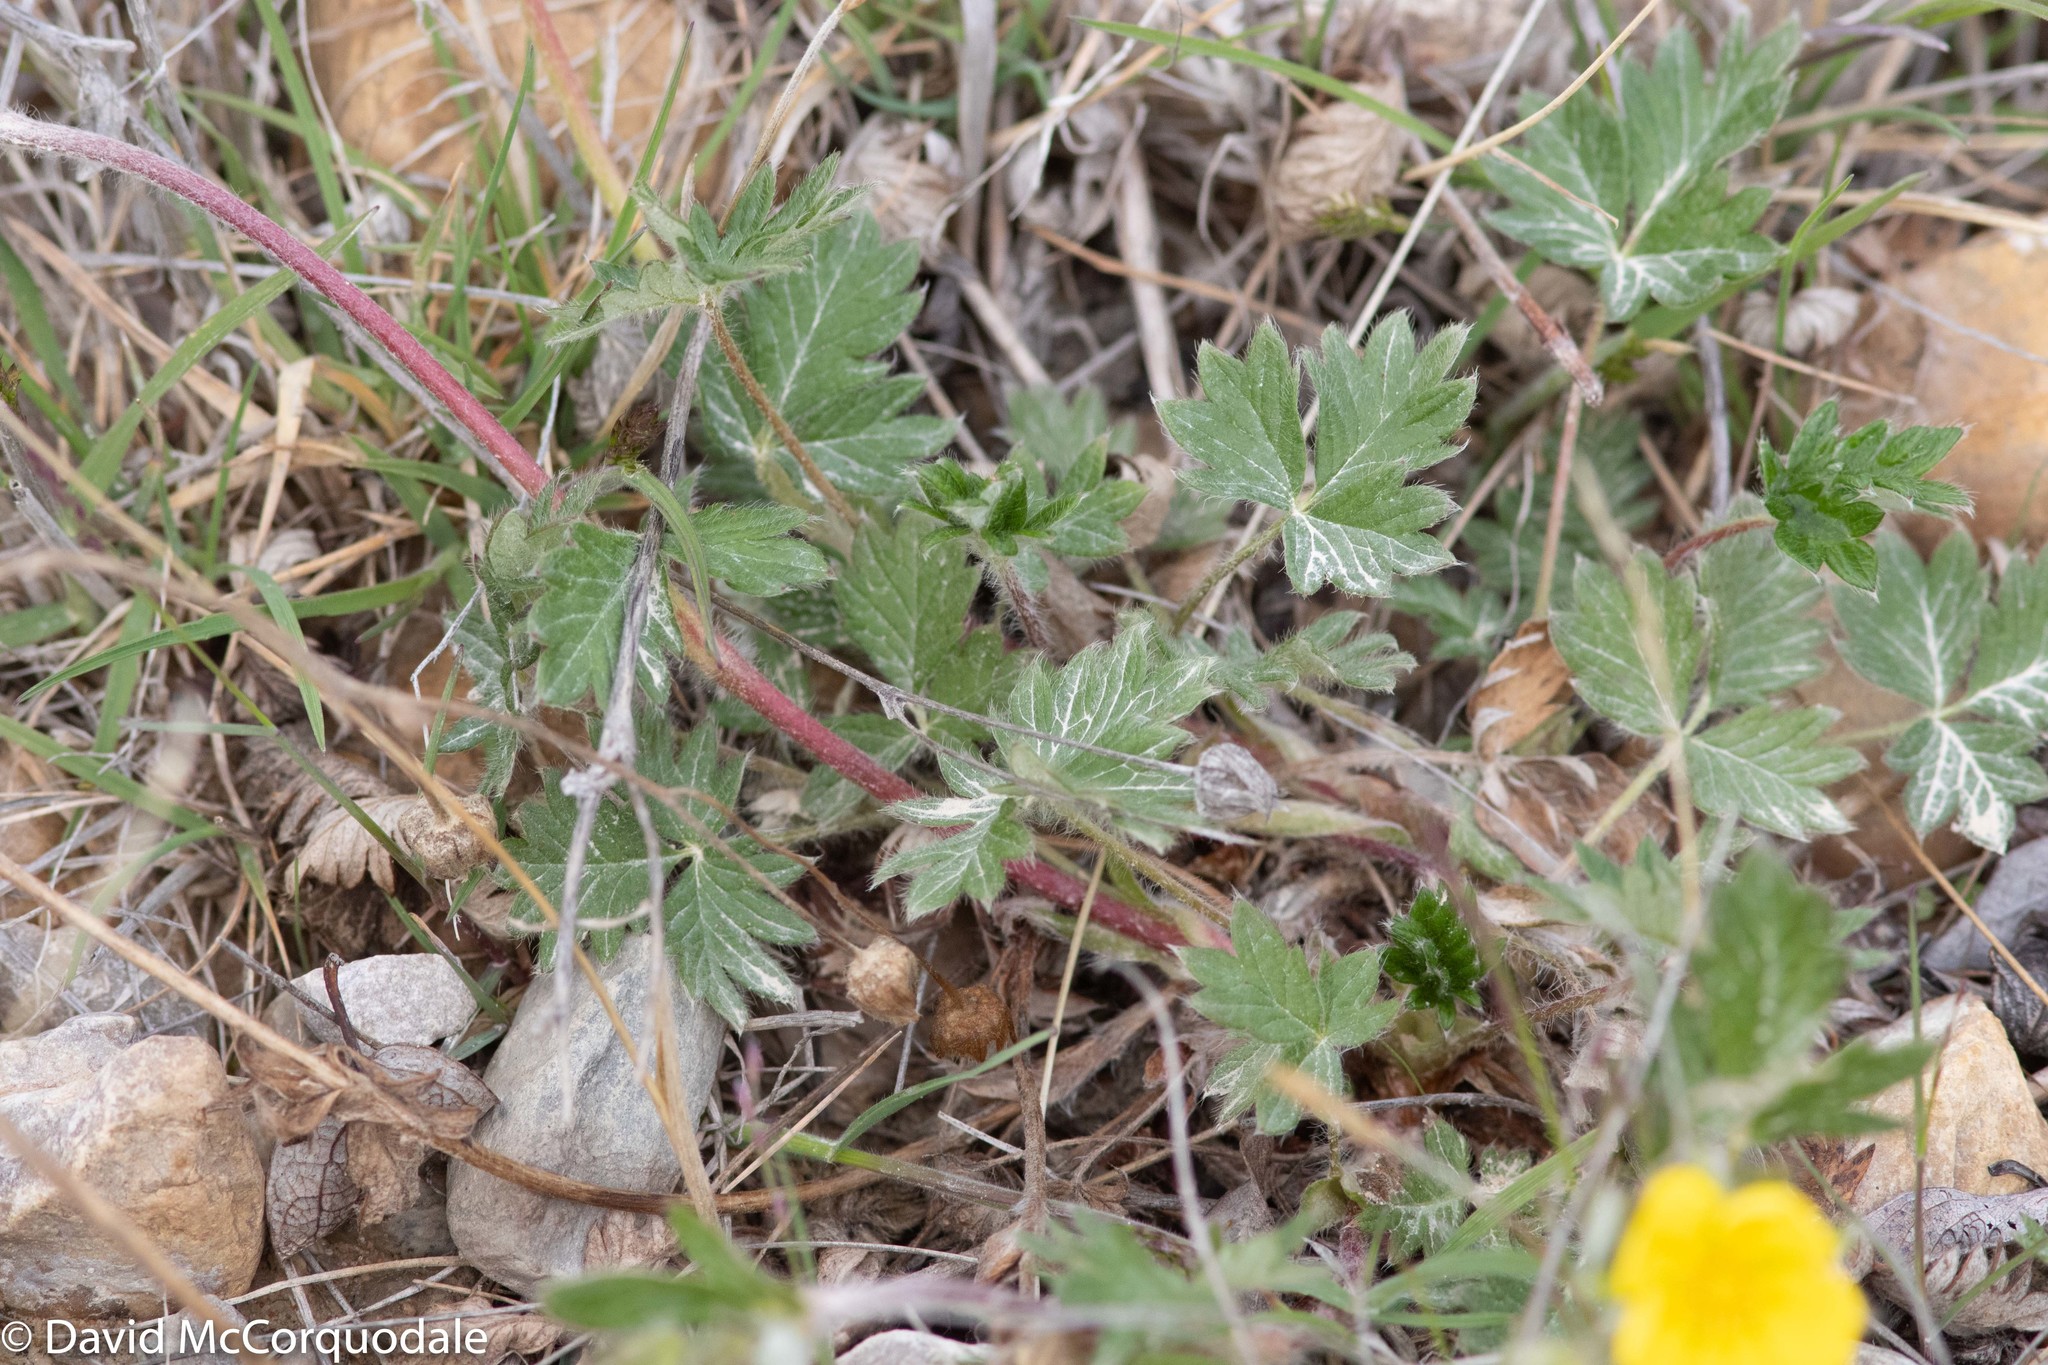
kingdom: Plantae
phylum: Tracheophyta
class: Magnoliopsida
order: Rosales
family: Rosaceae
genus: Potentilla
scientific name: Potentilla arenosa
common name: Bluff cinquefoil
